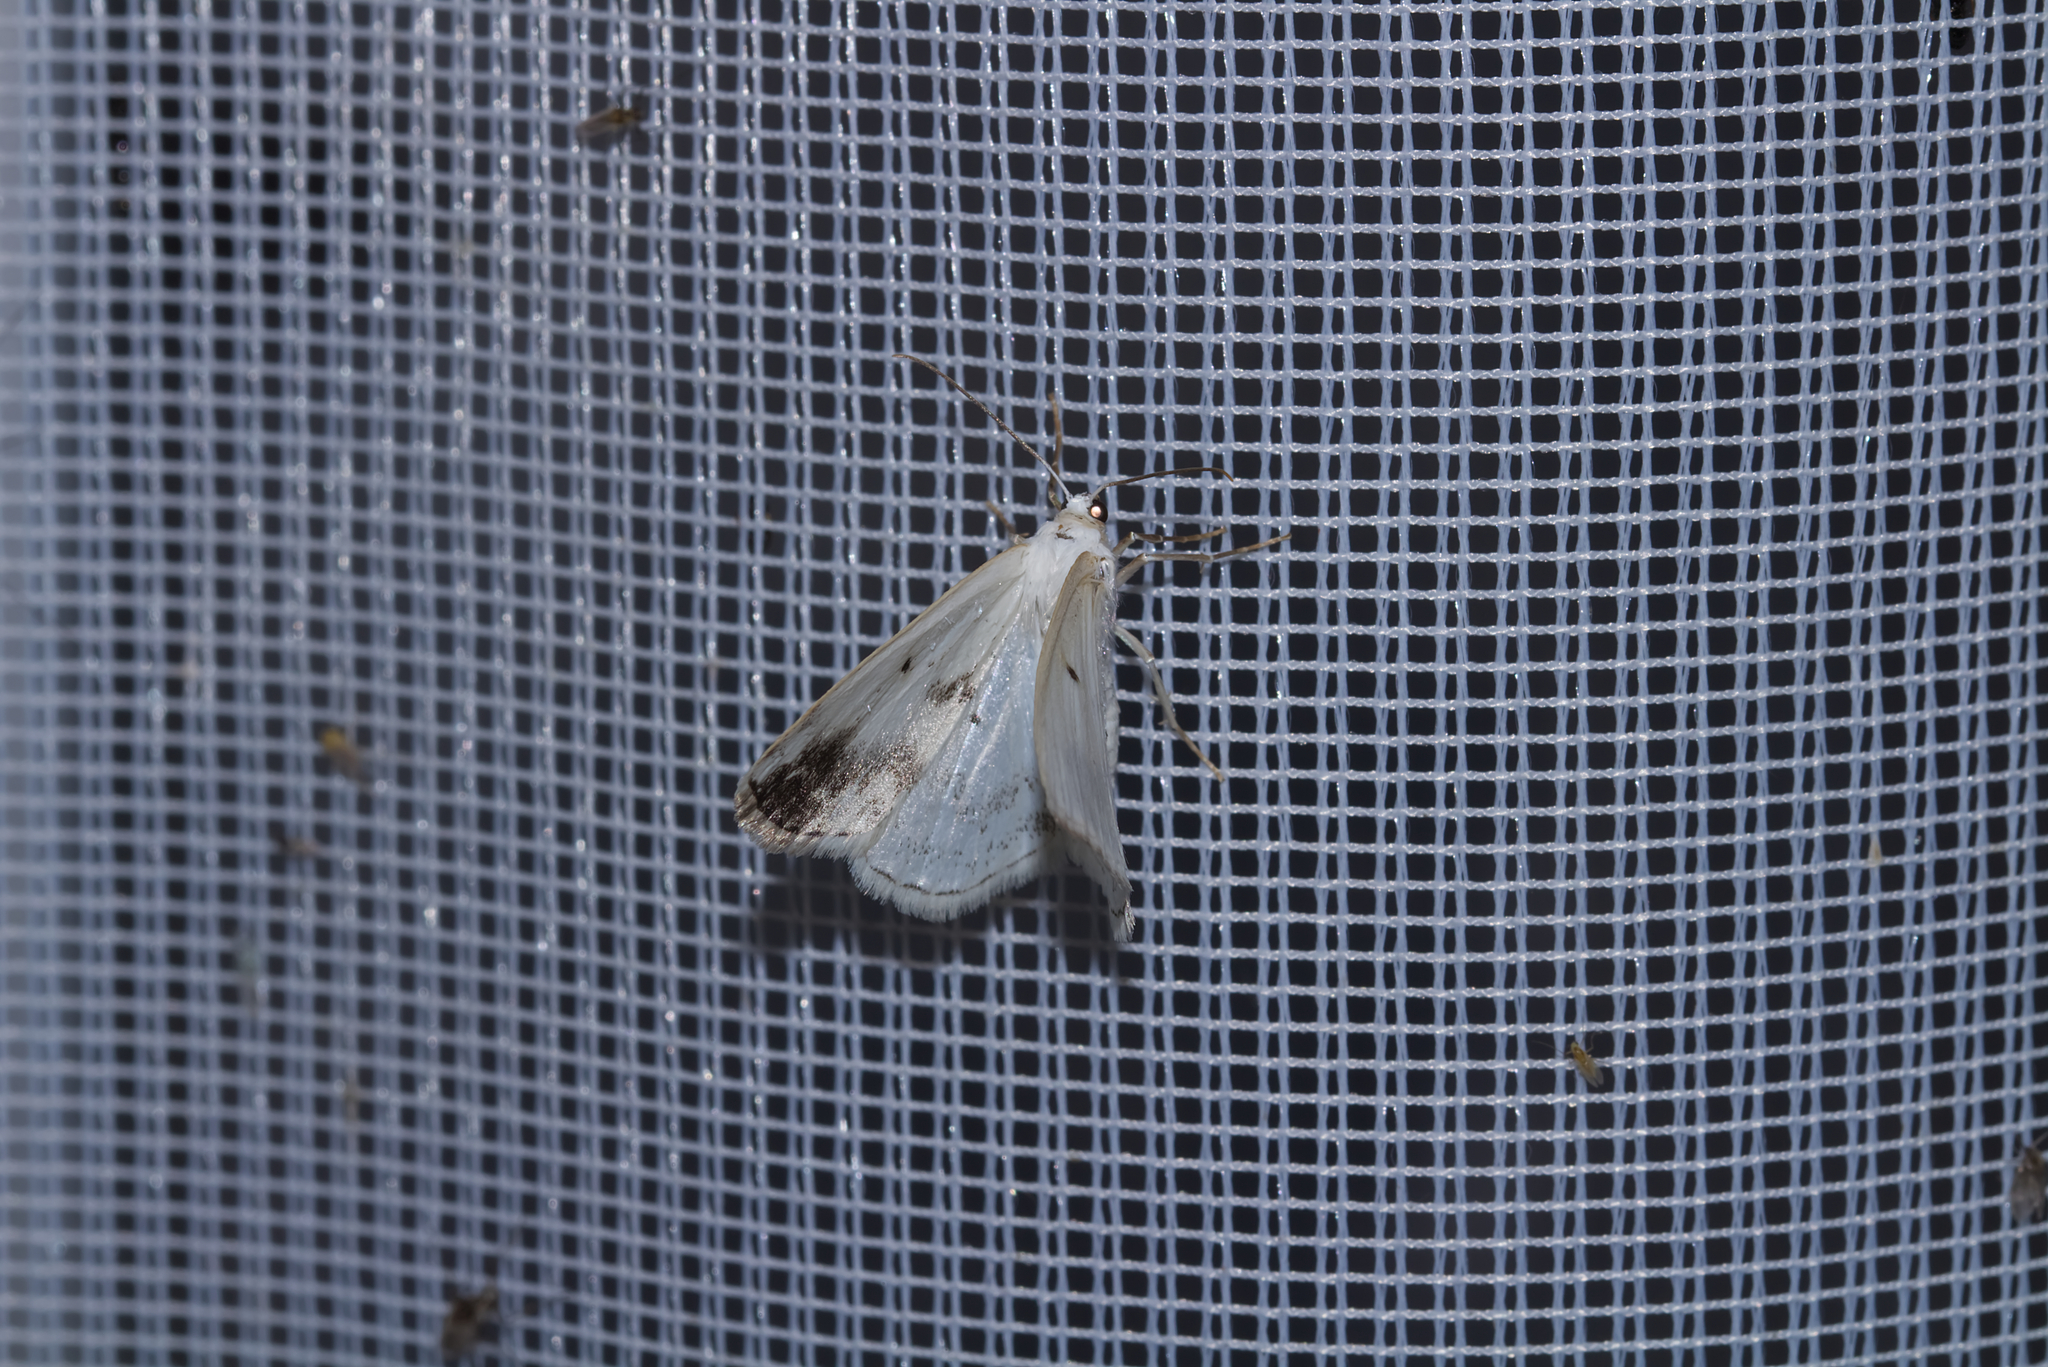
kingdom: Animalia
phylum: Arthropoda
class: Insecta
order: Lepidoptera
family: Geometridae
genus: Lomographa
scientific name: Lomographa temerata
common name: Clouded silver
